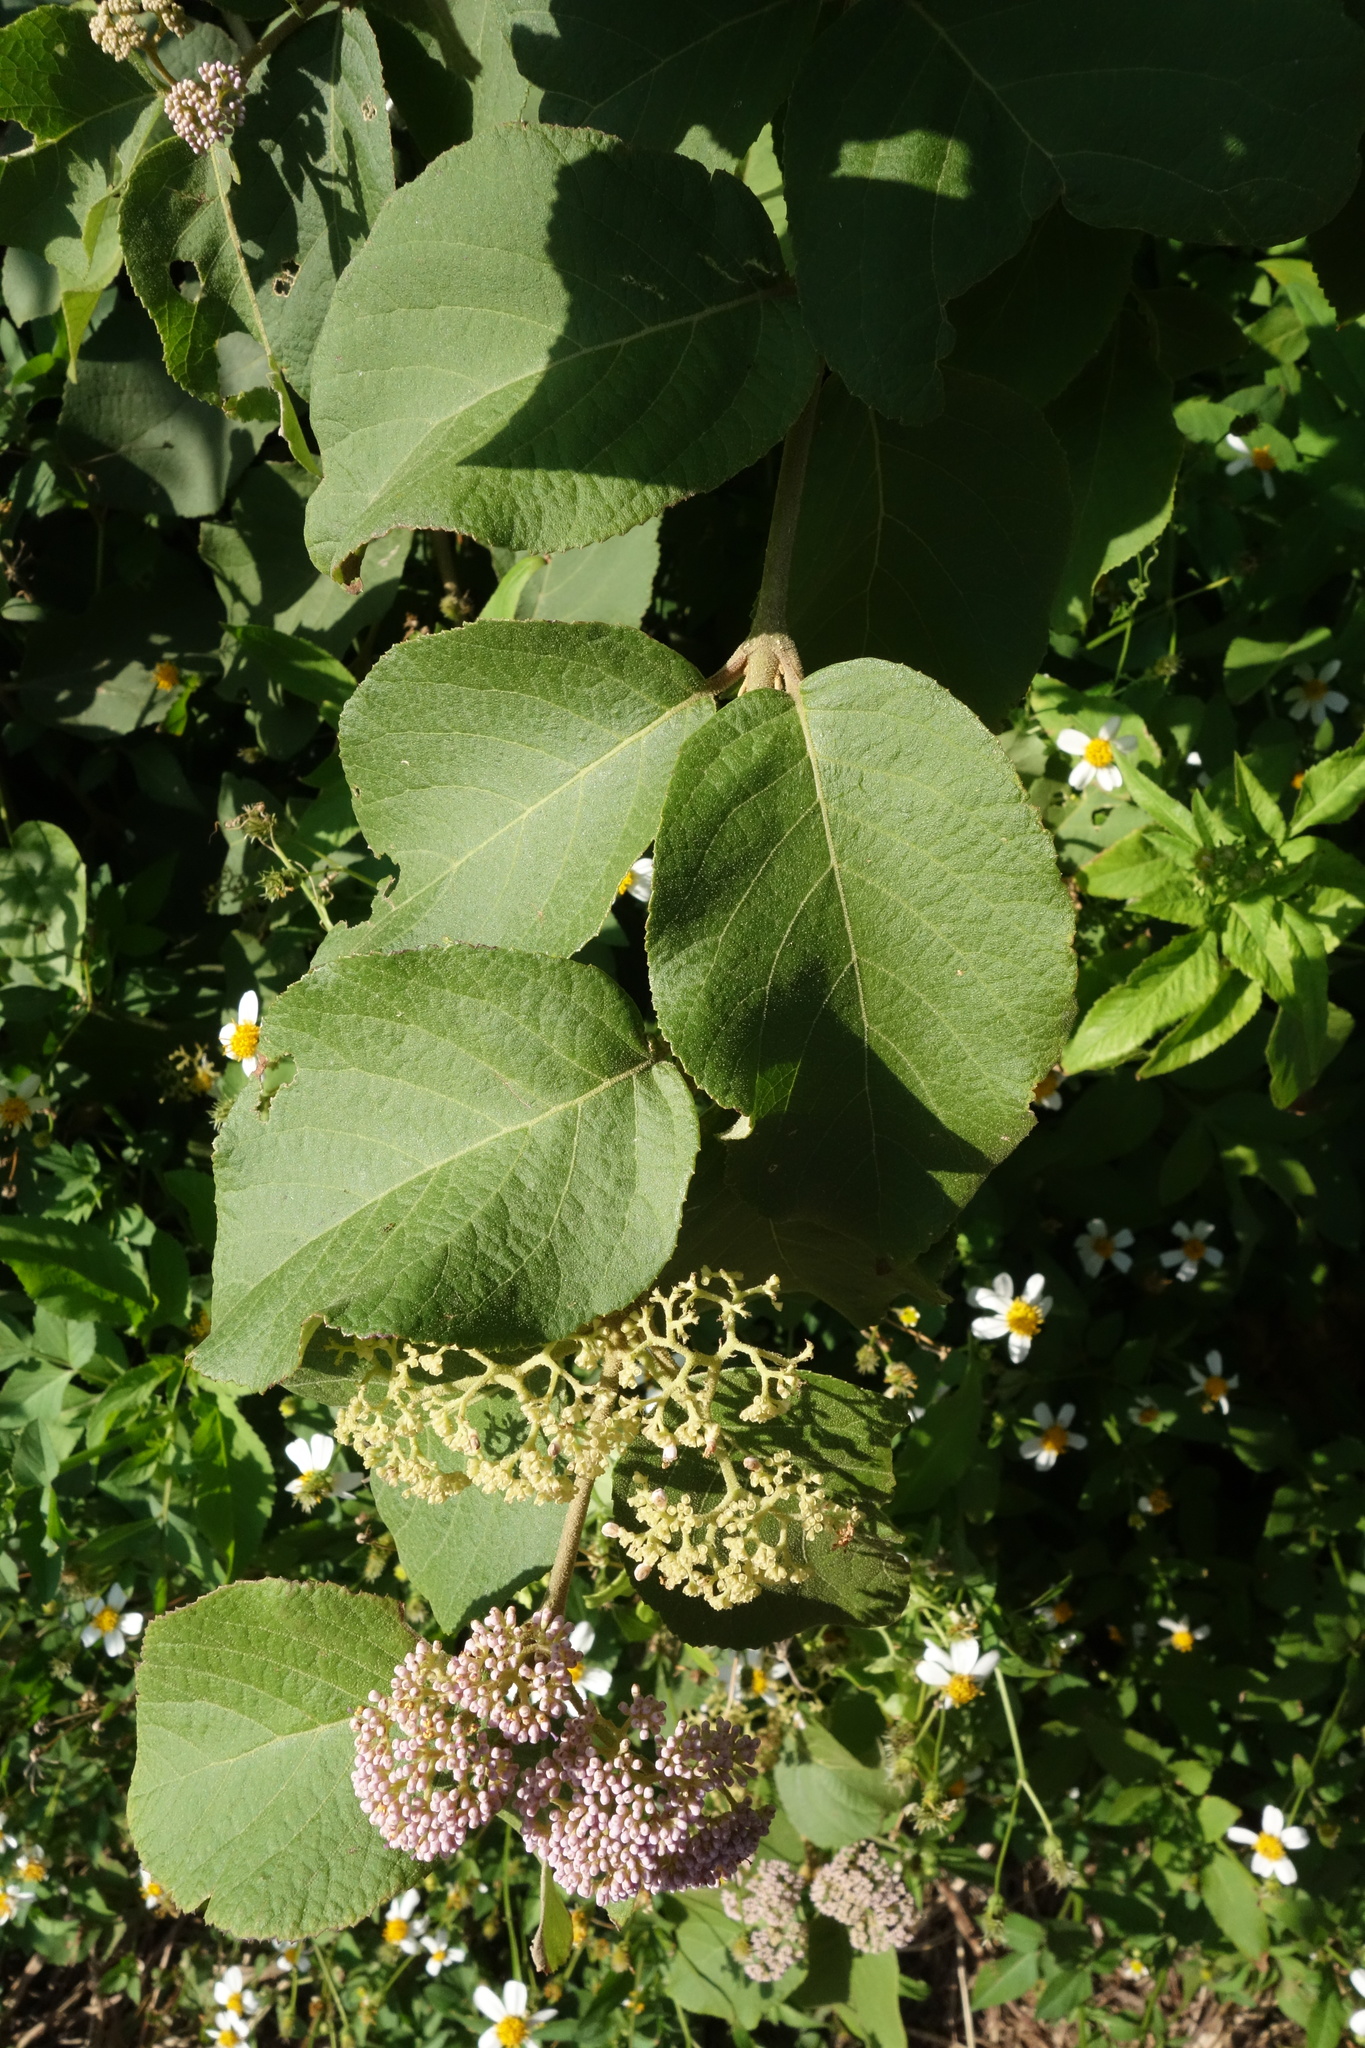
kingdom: Plantae
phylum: Tracheophyta
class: Magnoliopsida
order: Lamiales
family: Lamiaceae
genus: Callicarpa
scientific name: Callicarpa pedunculata
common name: Velvetleaf
